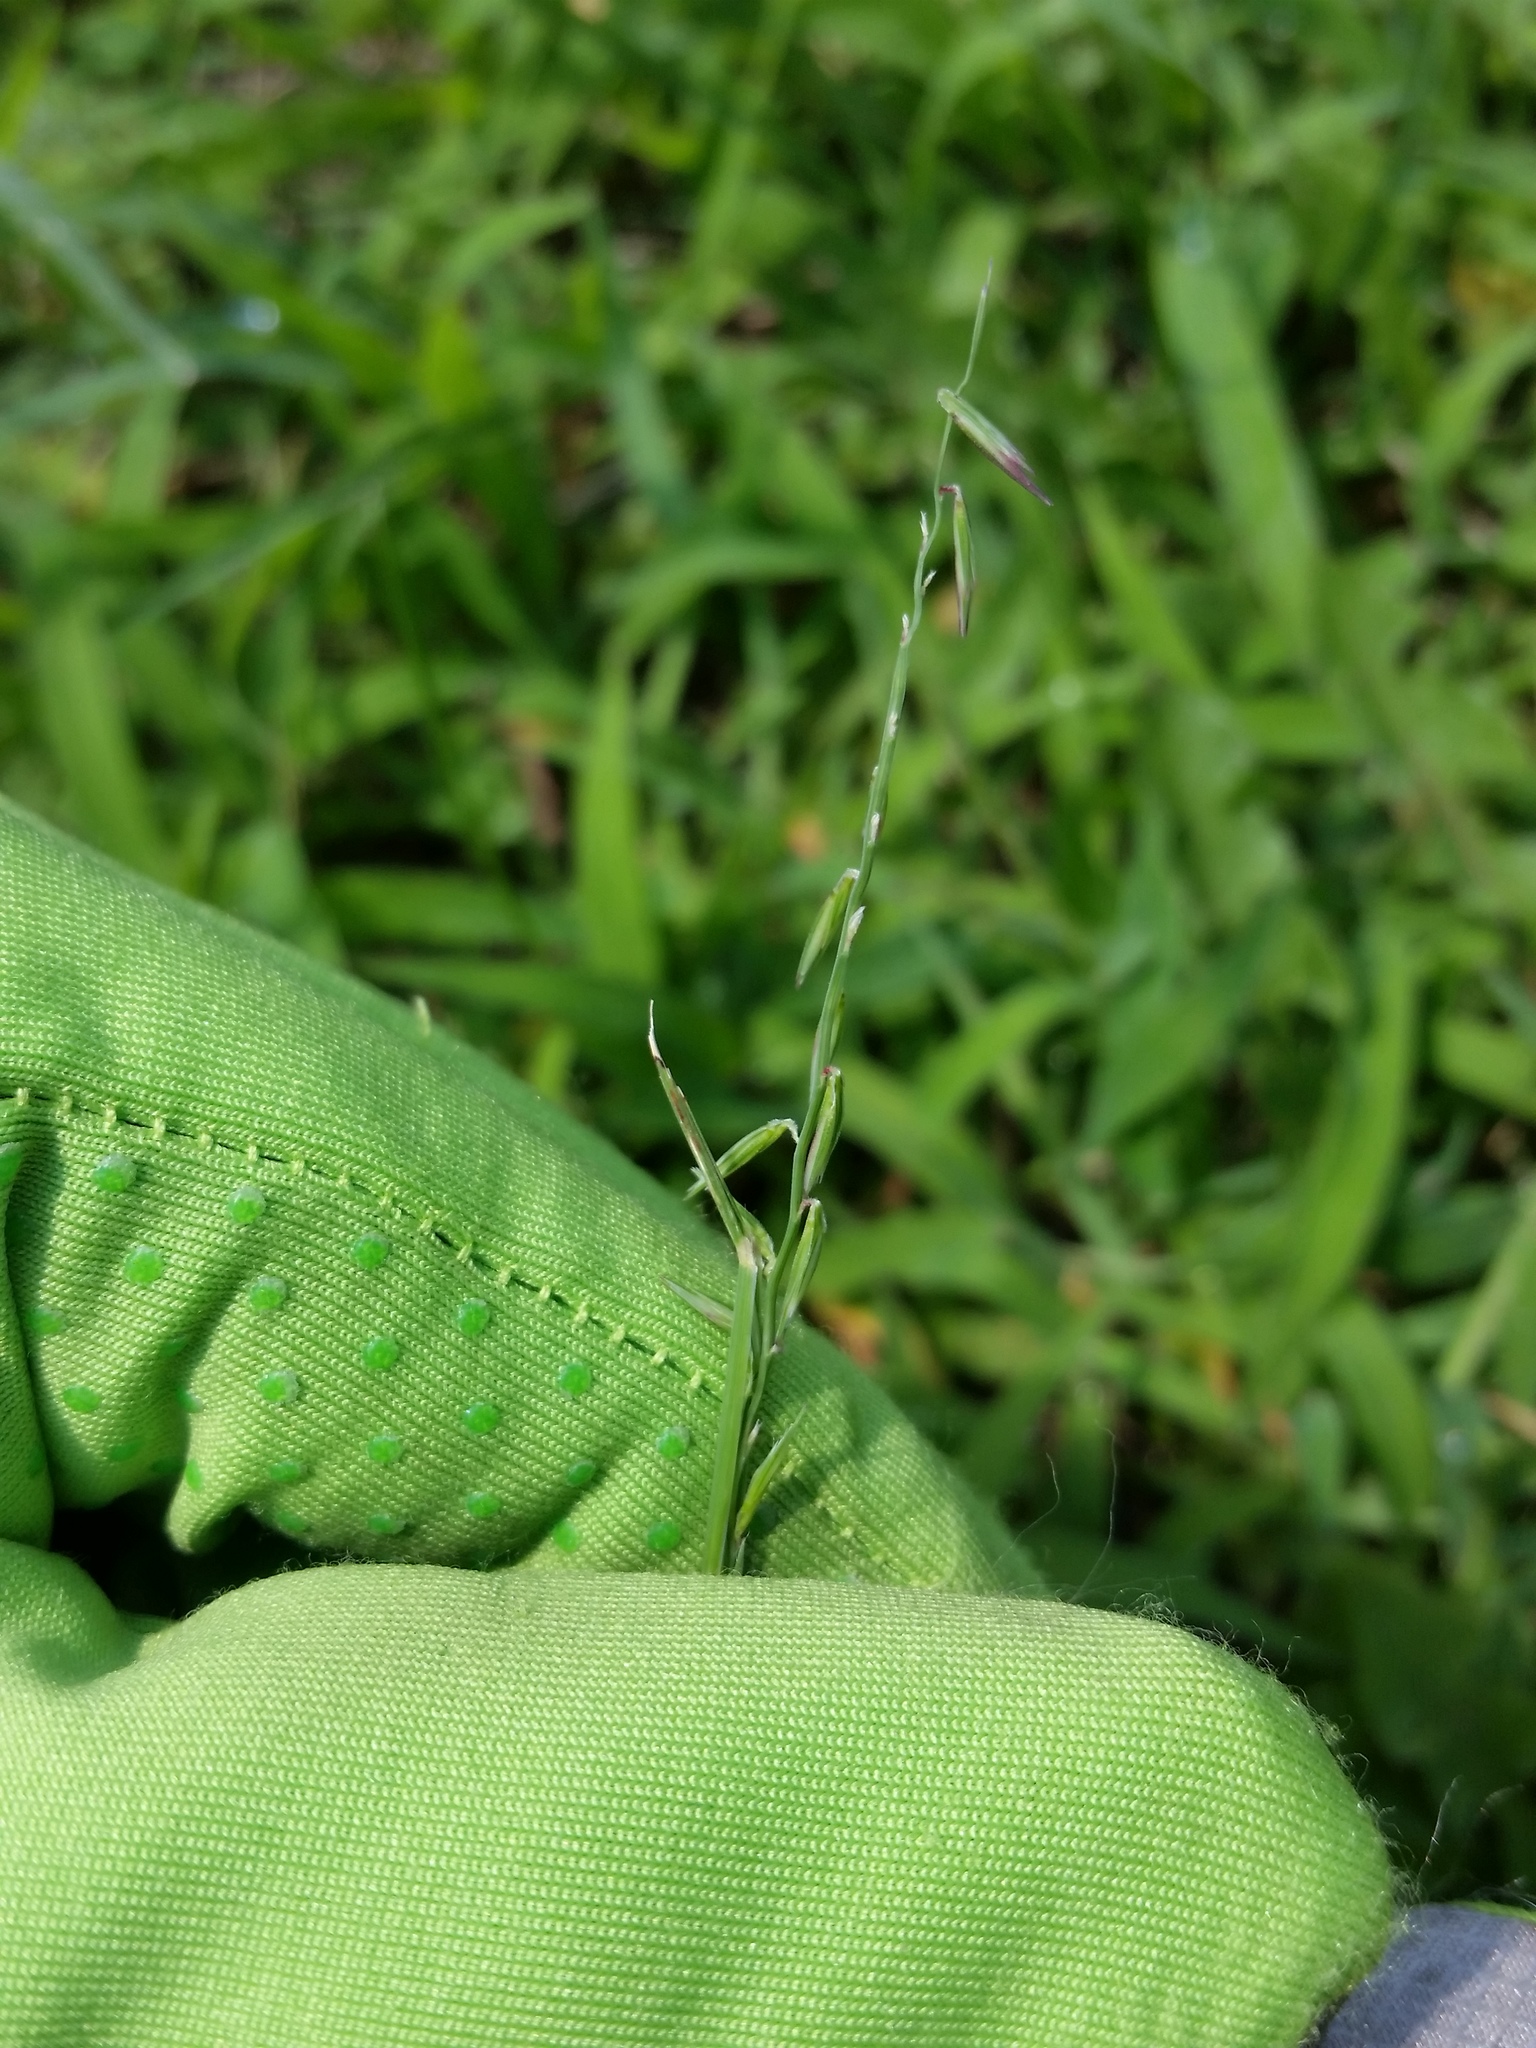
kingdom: Plantae
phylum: Tracheophyta
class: Liliopsida
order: Poales
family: Poaceae
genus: Bouteloua
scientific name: Bouteloua curtipendula
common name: Side-oats grama
